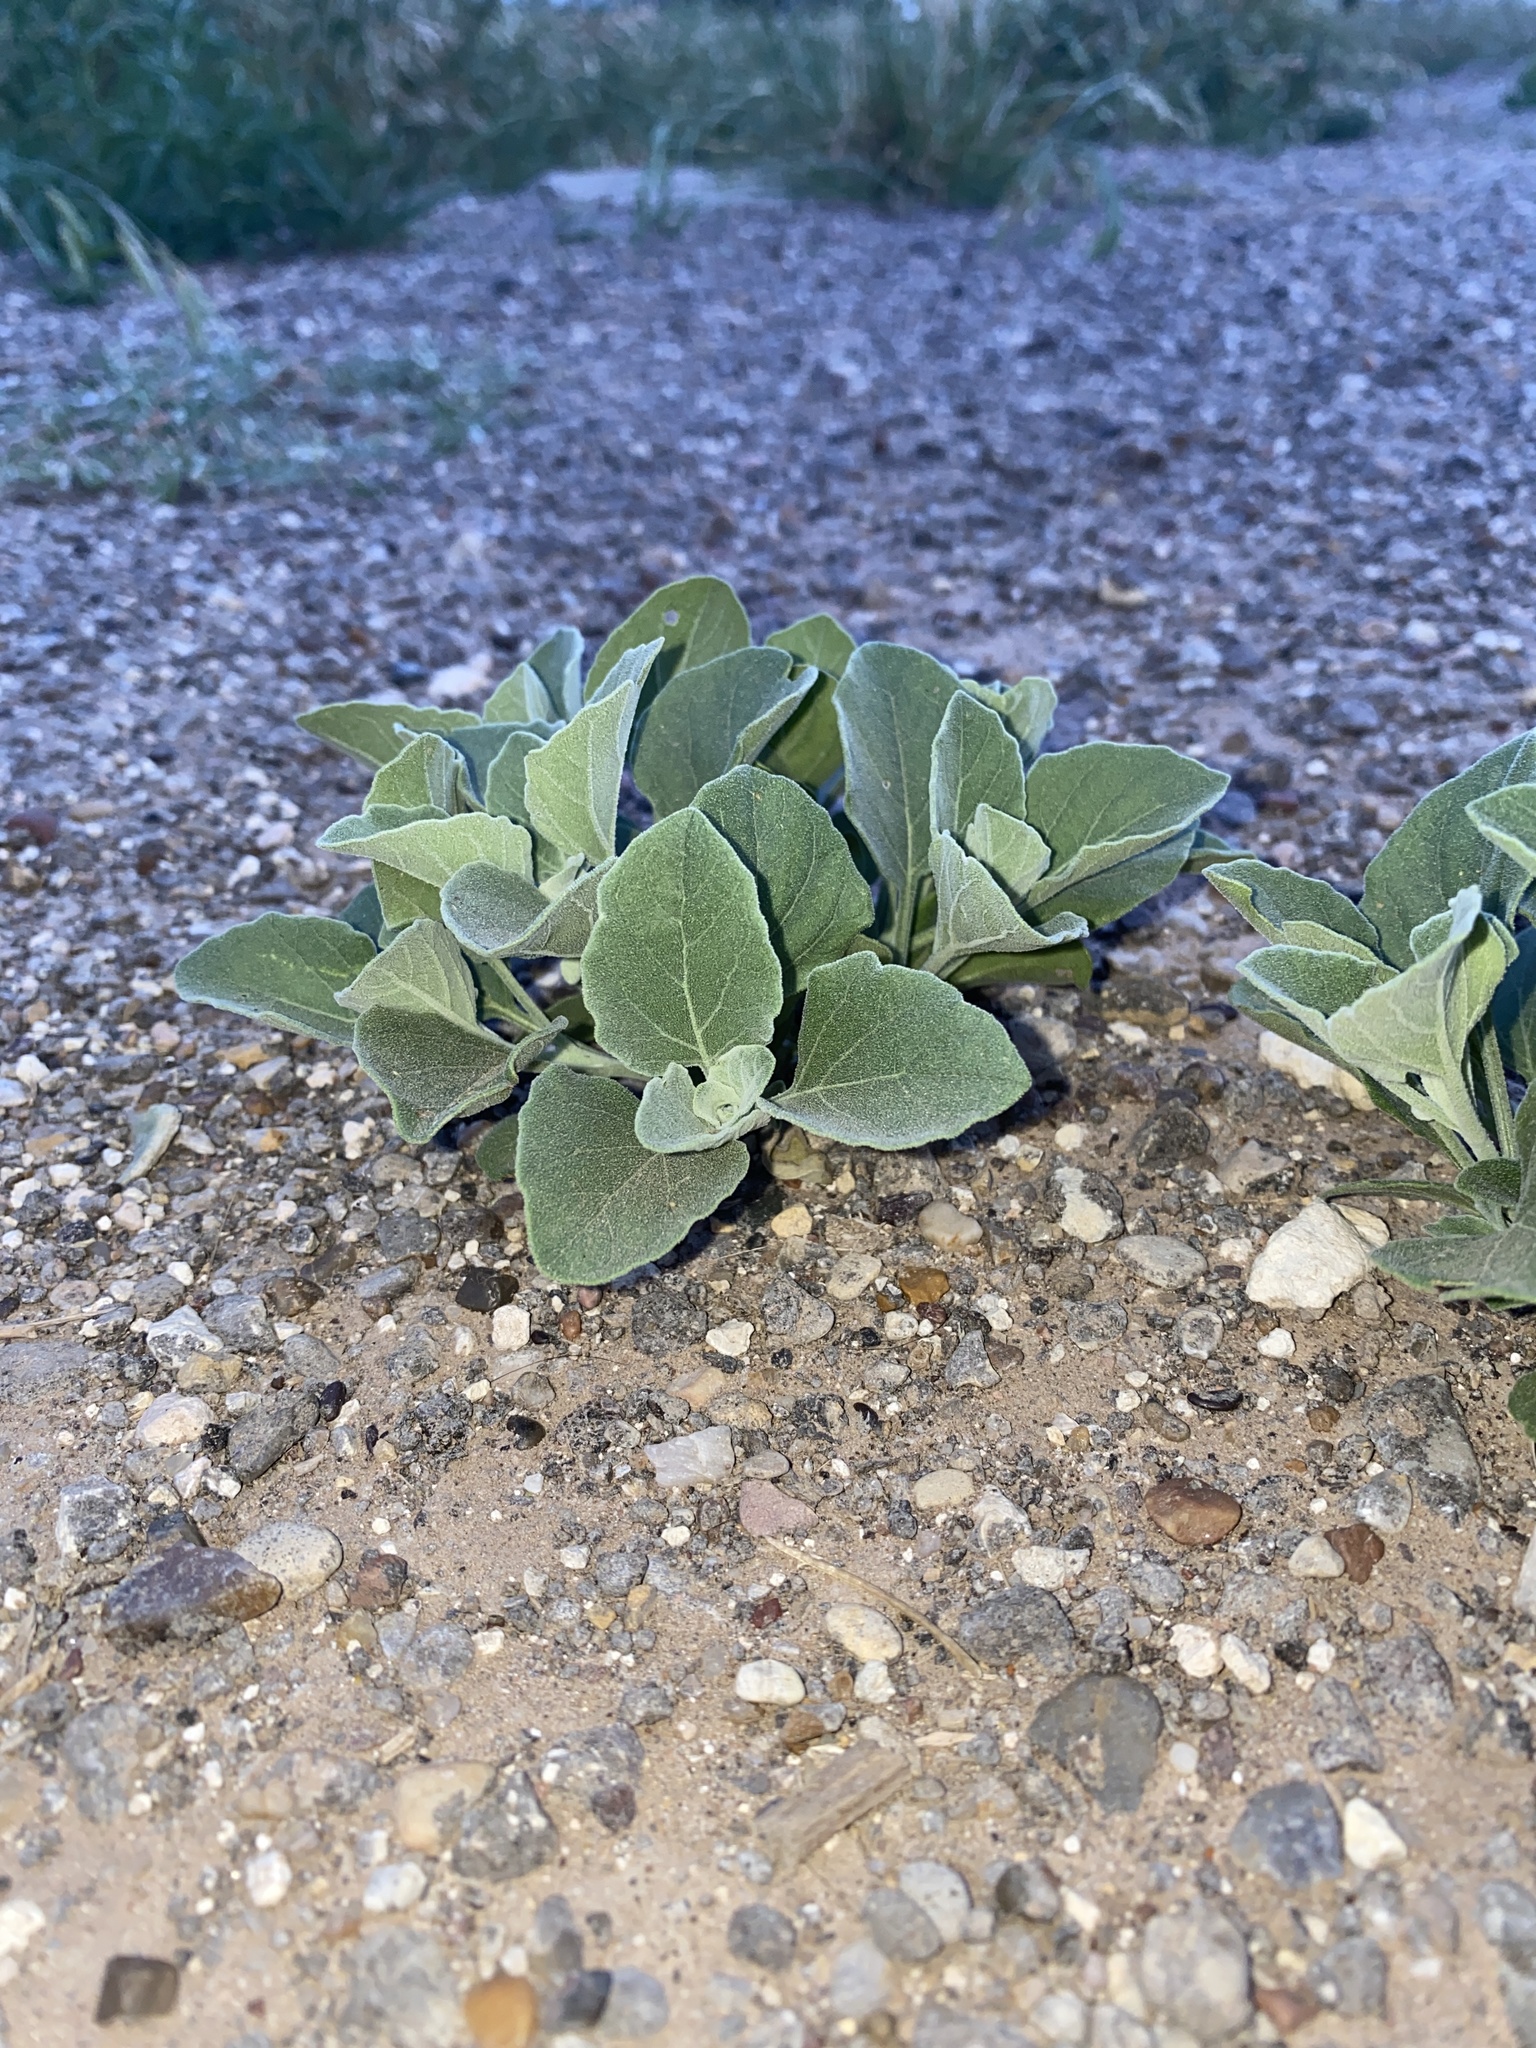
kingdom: Plantae
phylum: Tracheophyta
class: Magnoliopsida
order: Solanales
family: Solanaceae
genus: Physalis
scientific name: Physalis cinerascens
